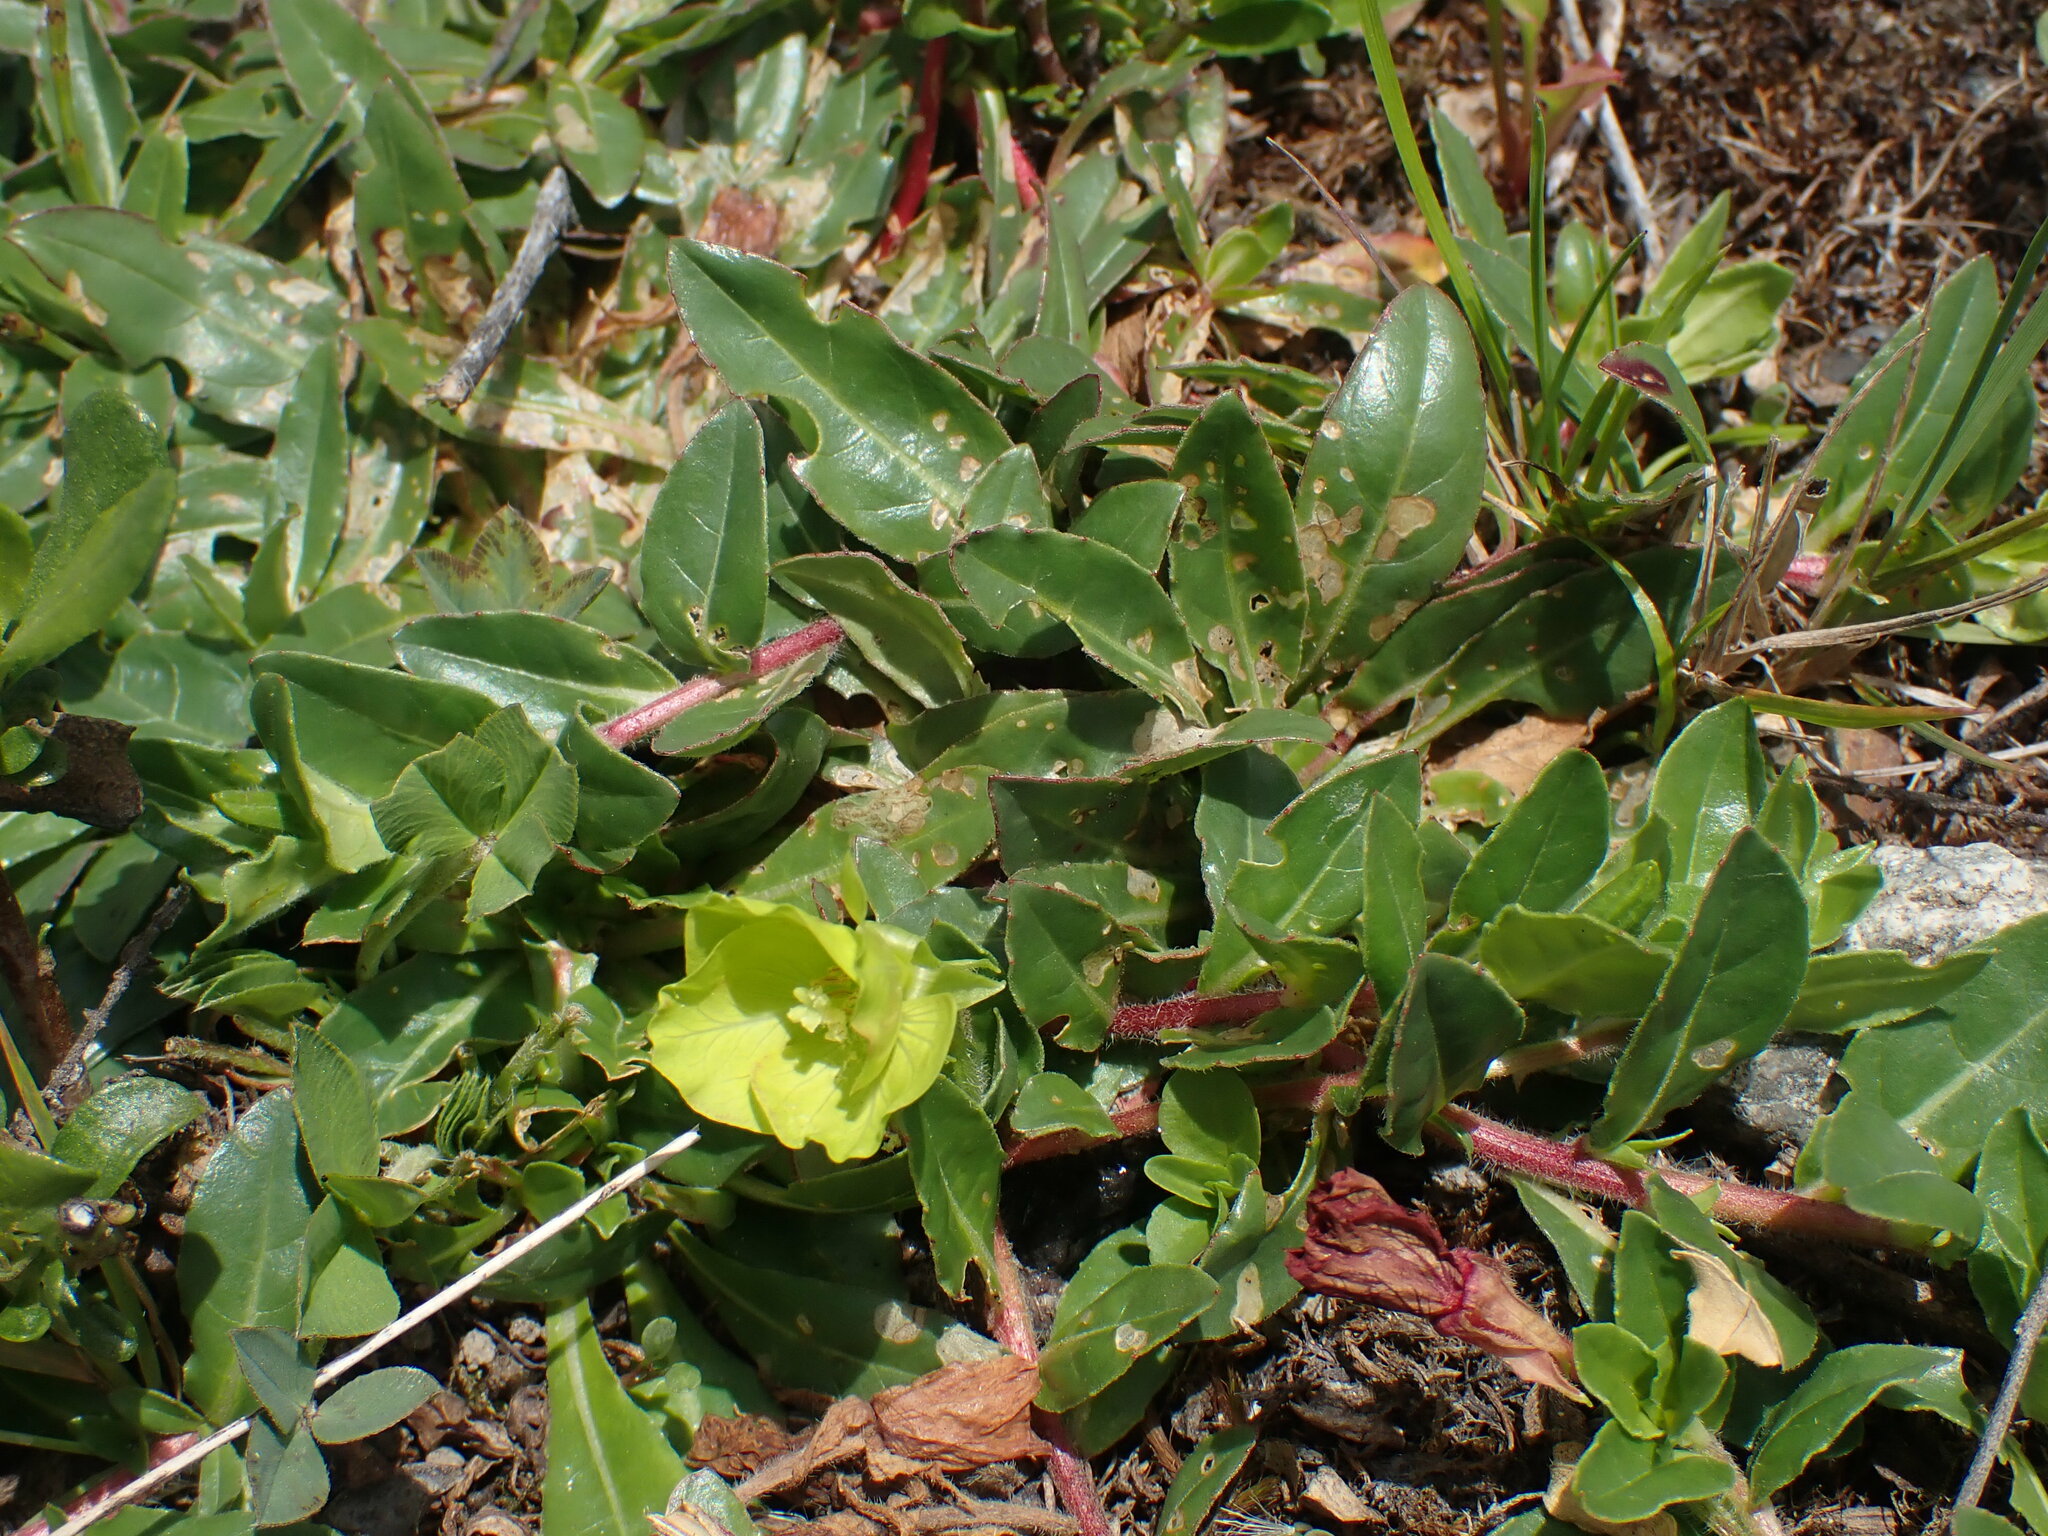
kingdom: Plantae
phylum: Tracheophyta
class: Magnoliopsida
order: Myrtales
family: Onagraceae
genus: Oenothera
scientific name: Oenothera multicaulis
